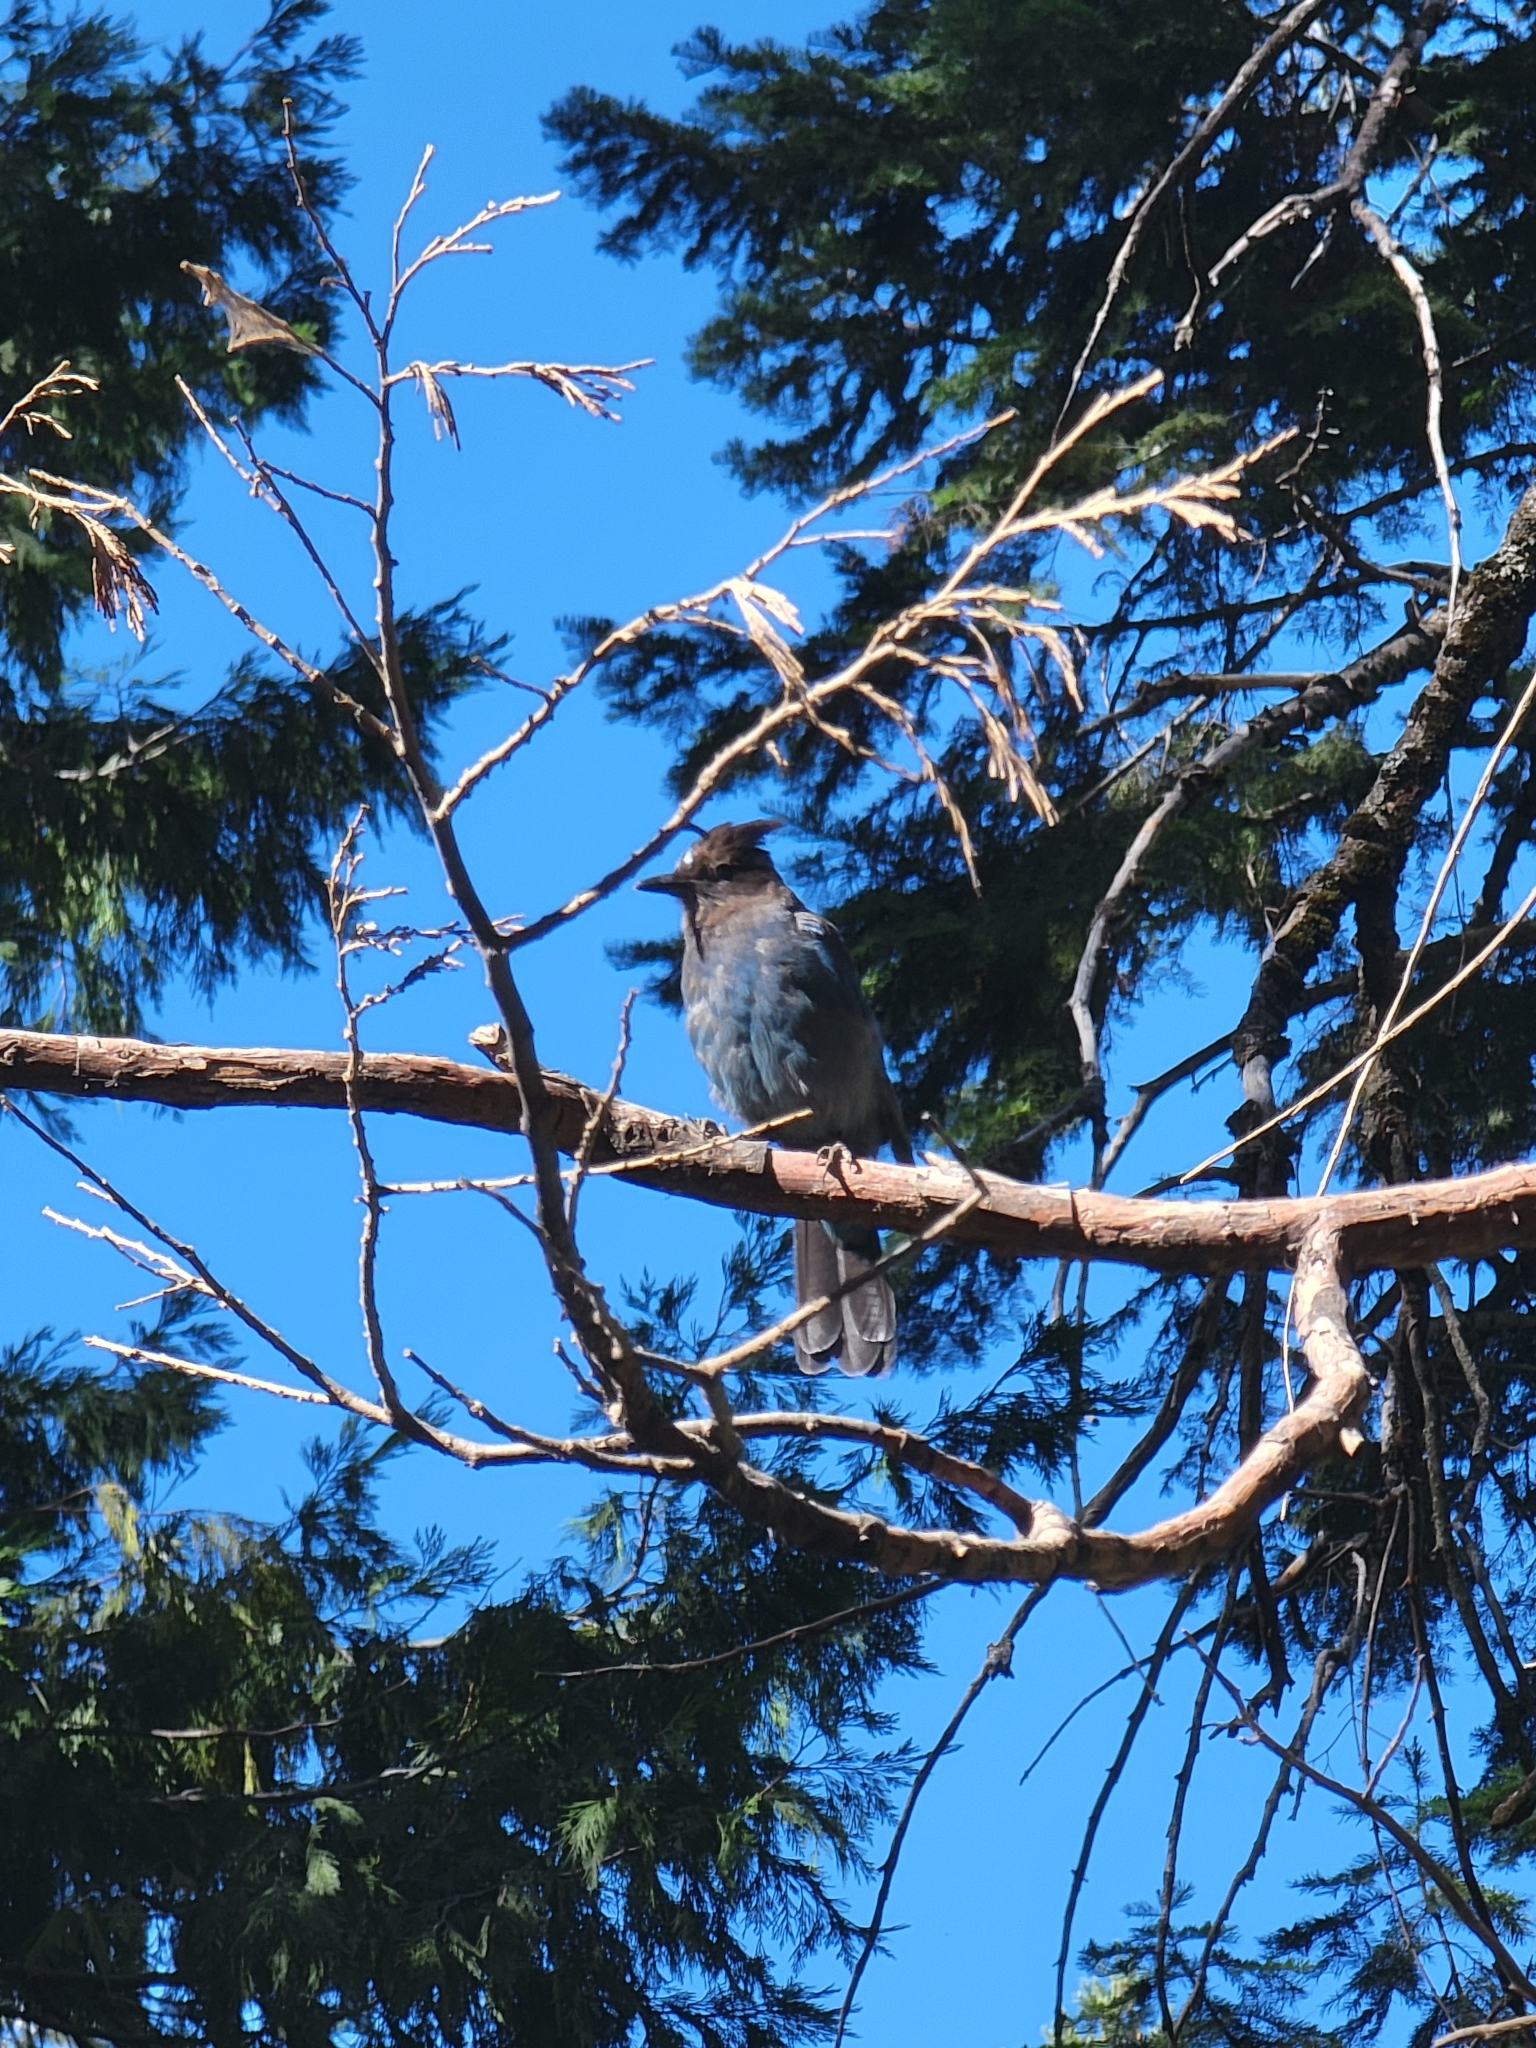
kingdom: Animalia
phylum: Chordata
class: Aves
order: Passeriformes
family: Corvidae
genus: Cyanocitta
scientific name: Cyanocitta stelleri
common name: Steller's jay
